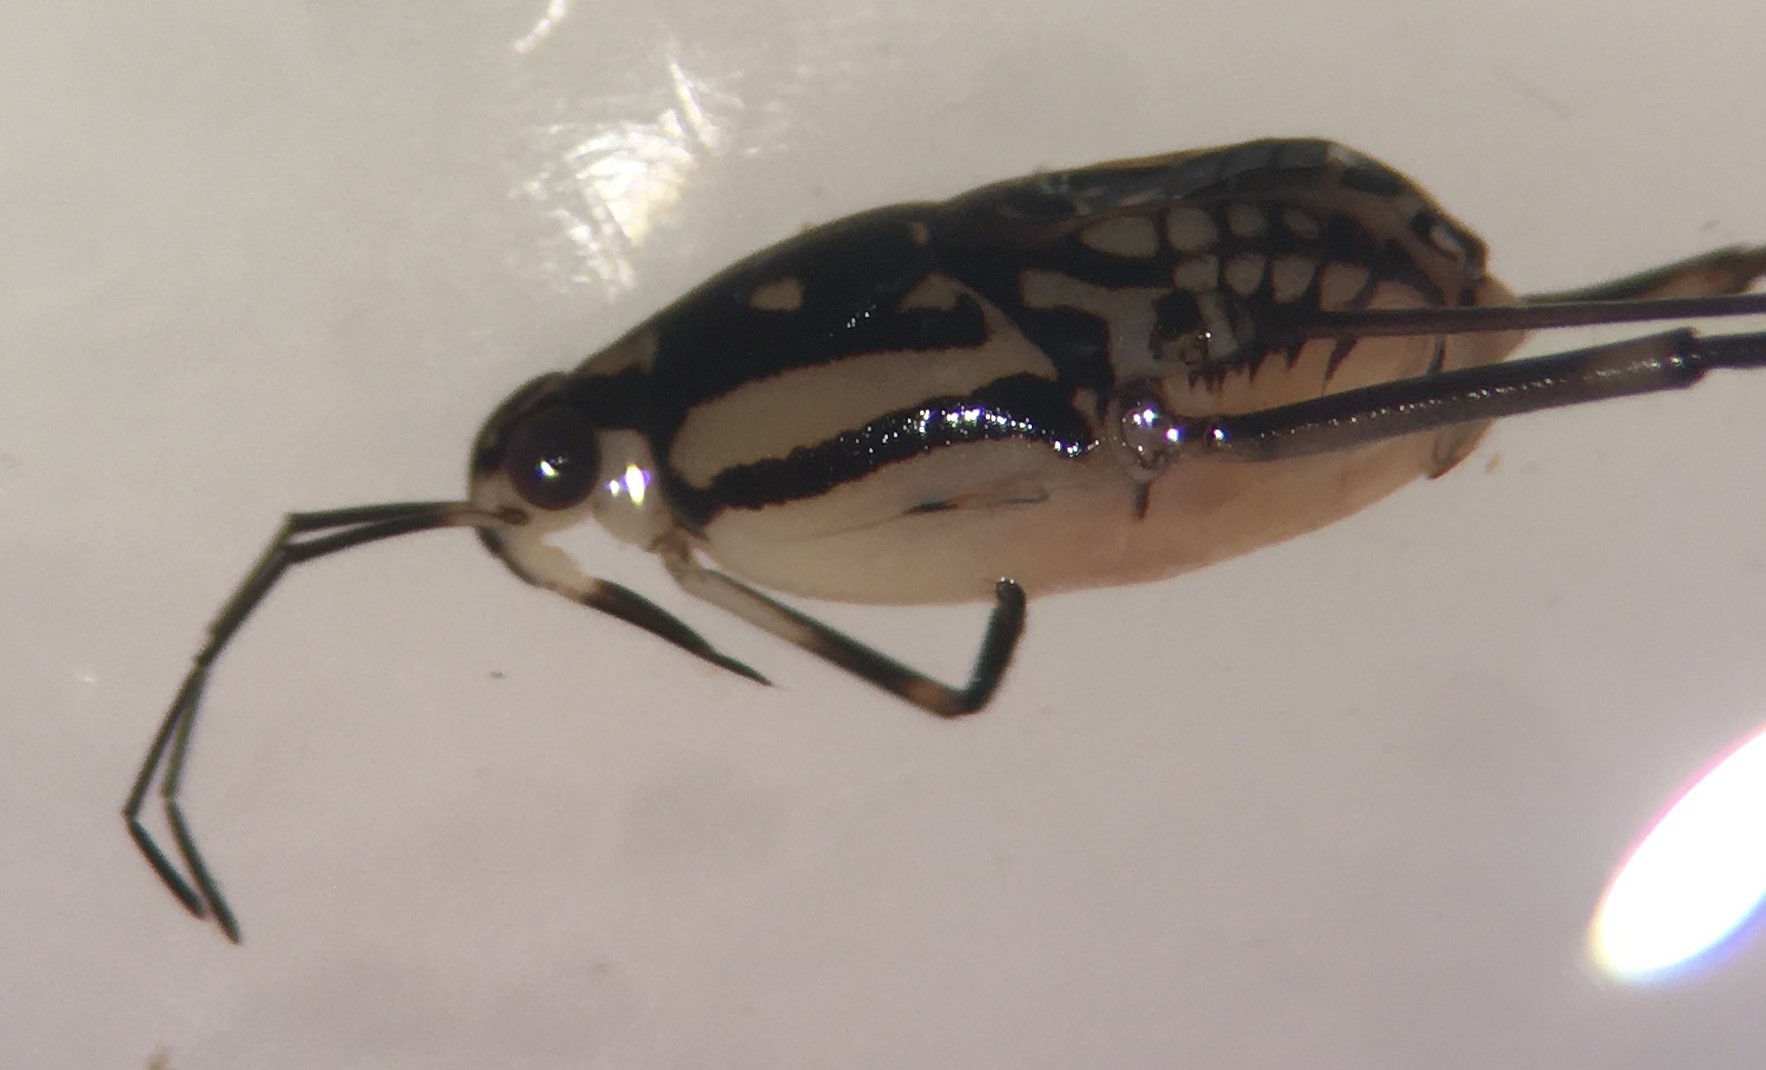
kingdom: Animalia
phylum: Arthropoda
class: Insecta
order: Hemiptera
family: Gerridae
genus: Trepobates
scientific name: Trepobates subnitidus
